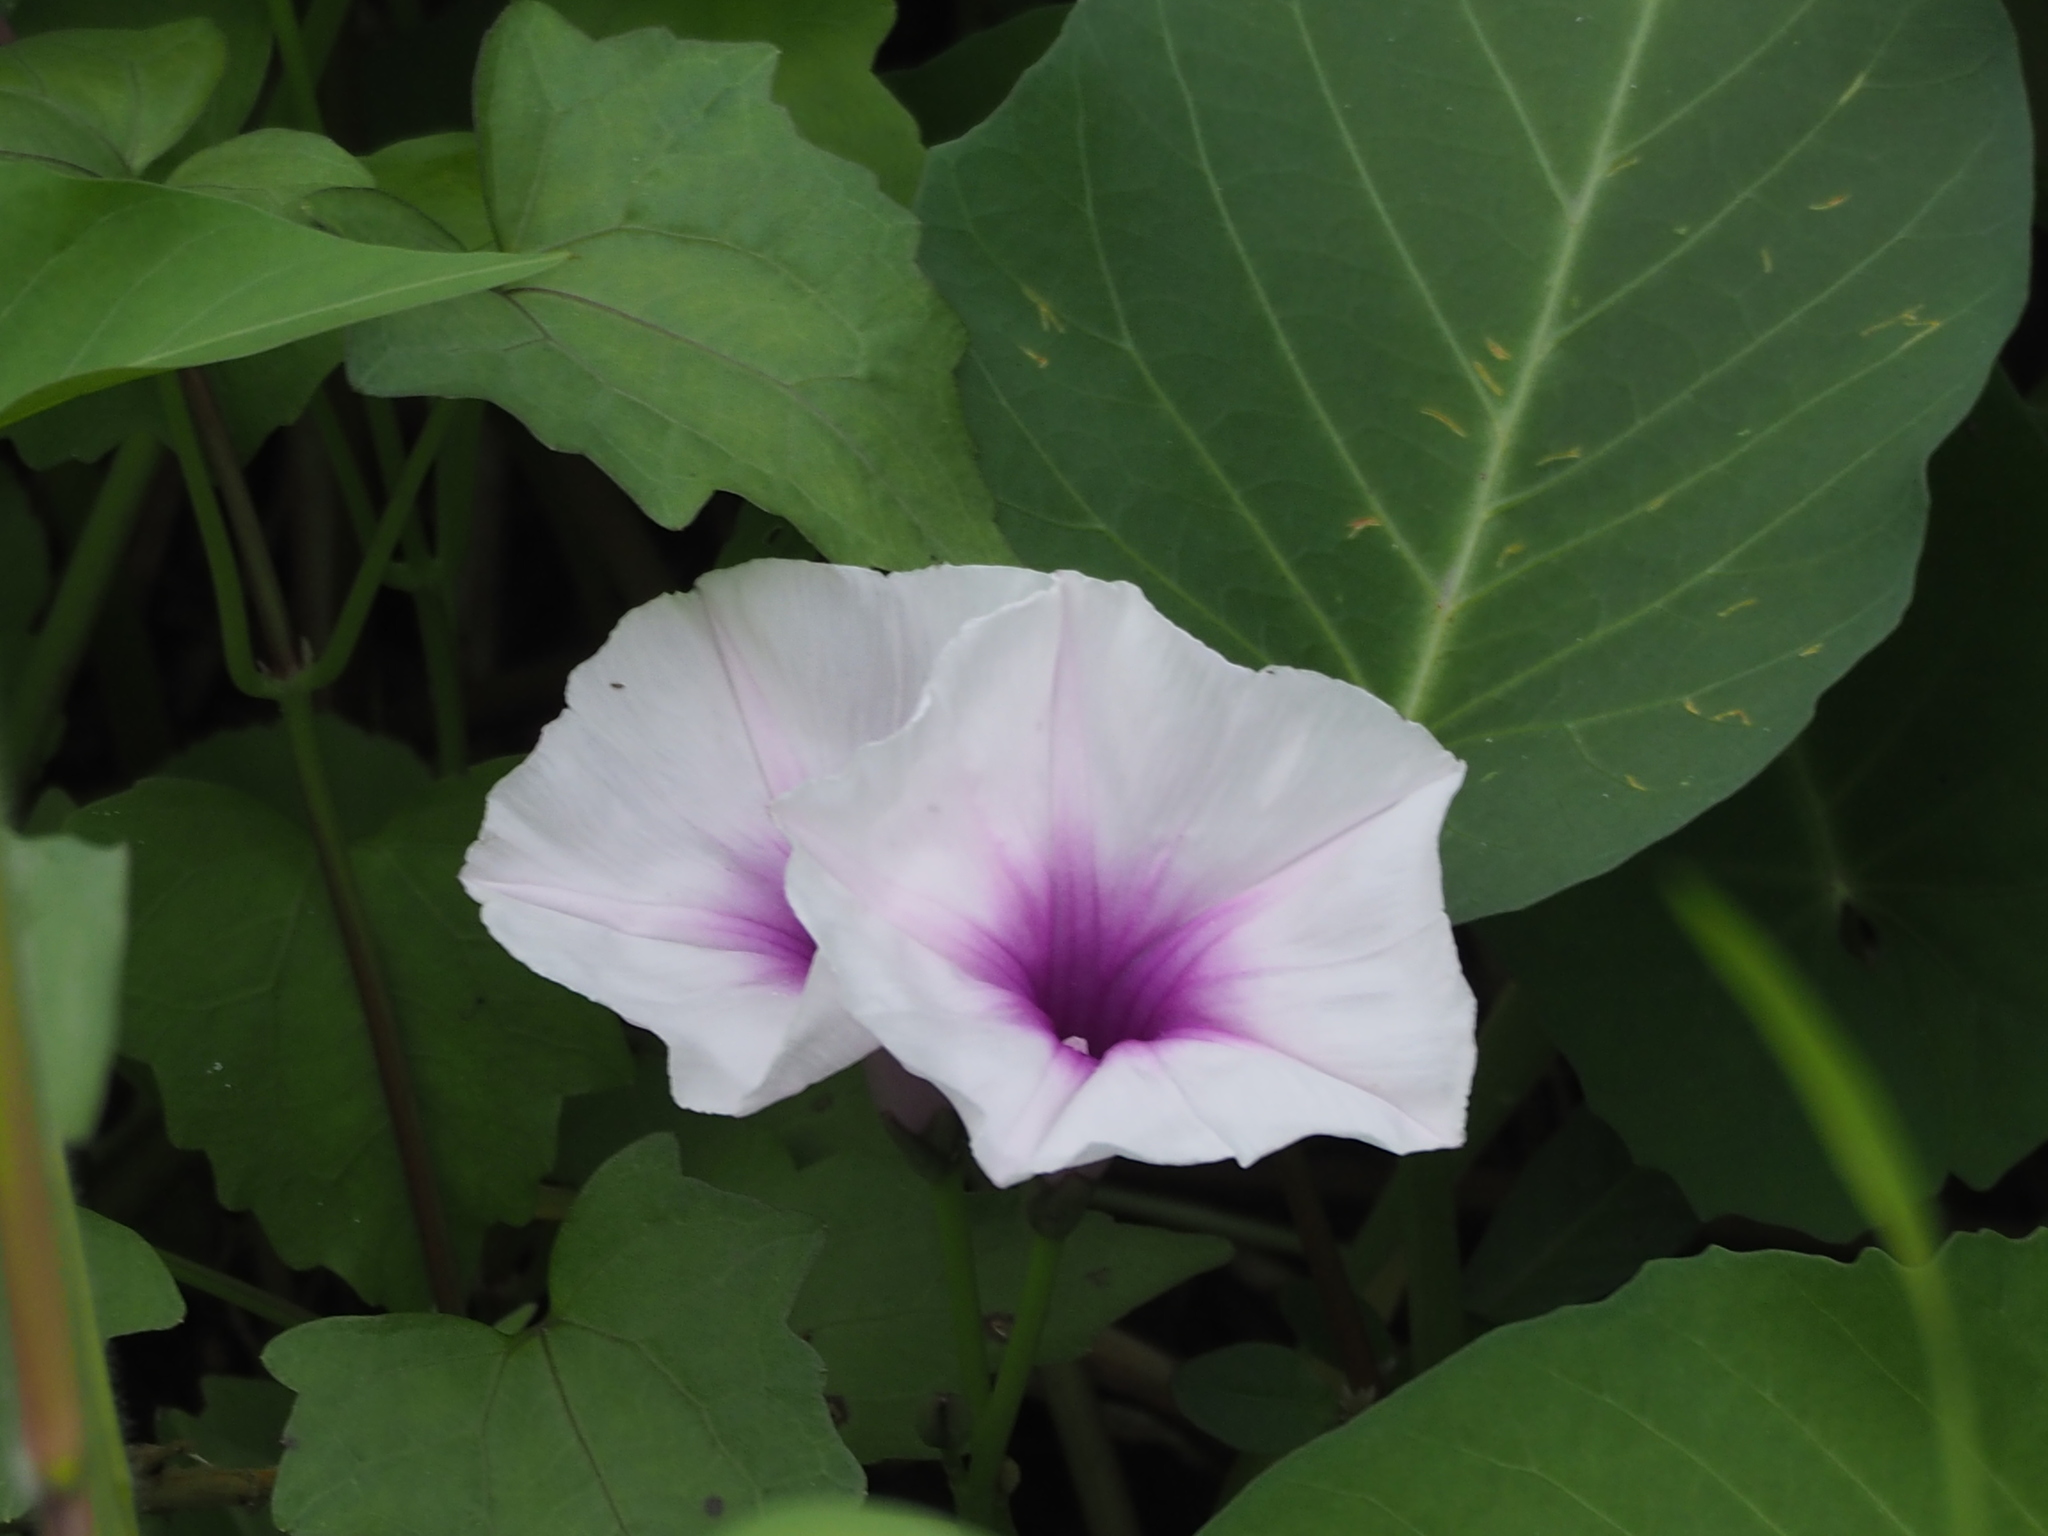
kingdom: Plantae
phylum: Tracheophyta
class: Magnoliopsida
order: Solanales
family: Convolvulaceae
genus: Ipomoea
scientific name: Ipomoea aquatica
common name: Swamp morning-glory
